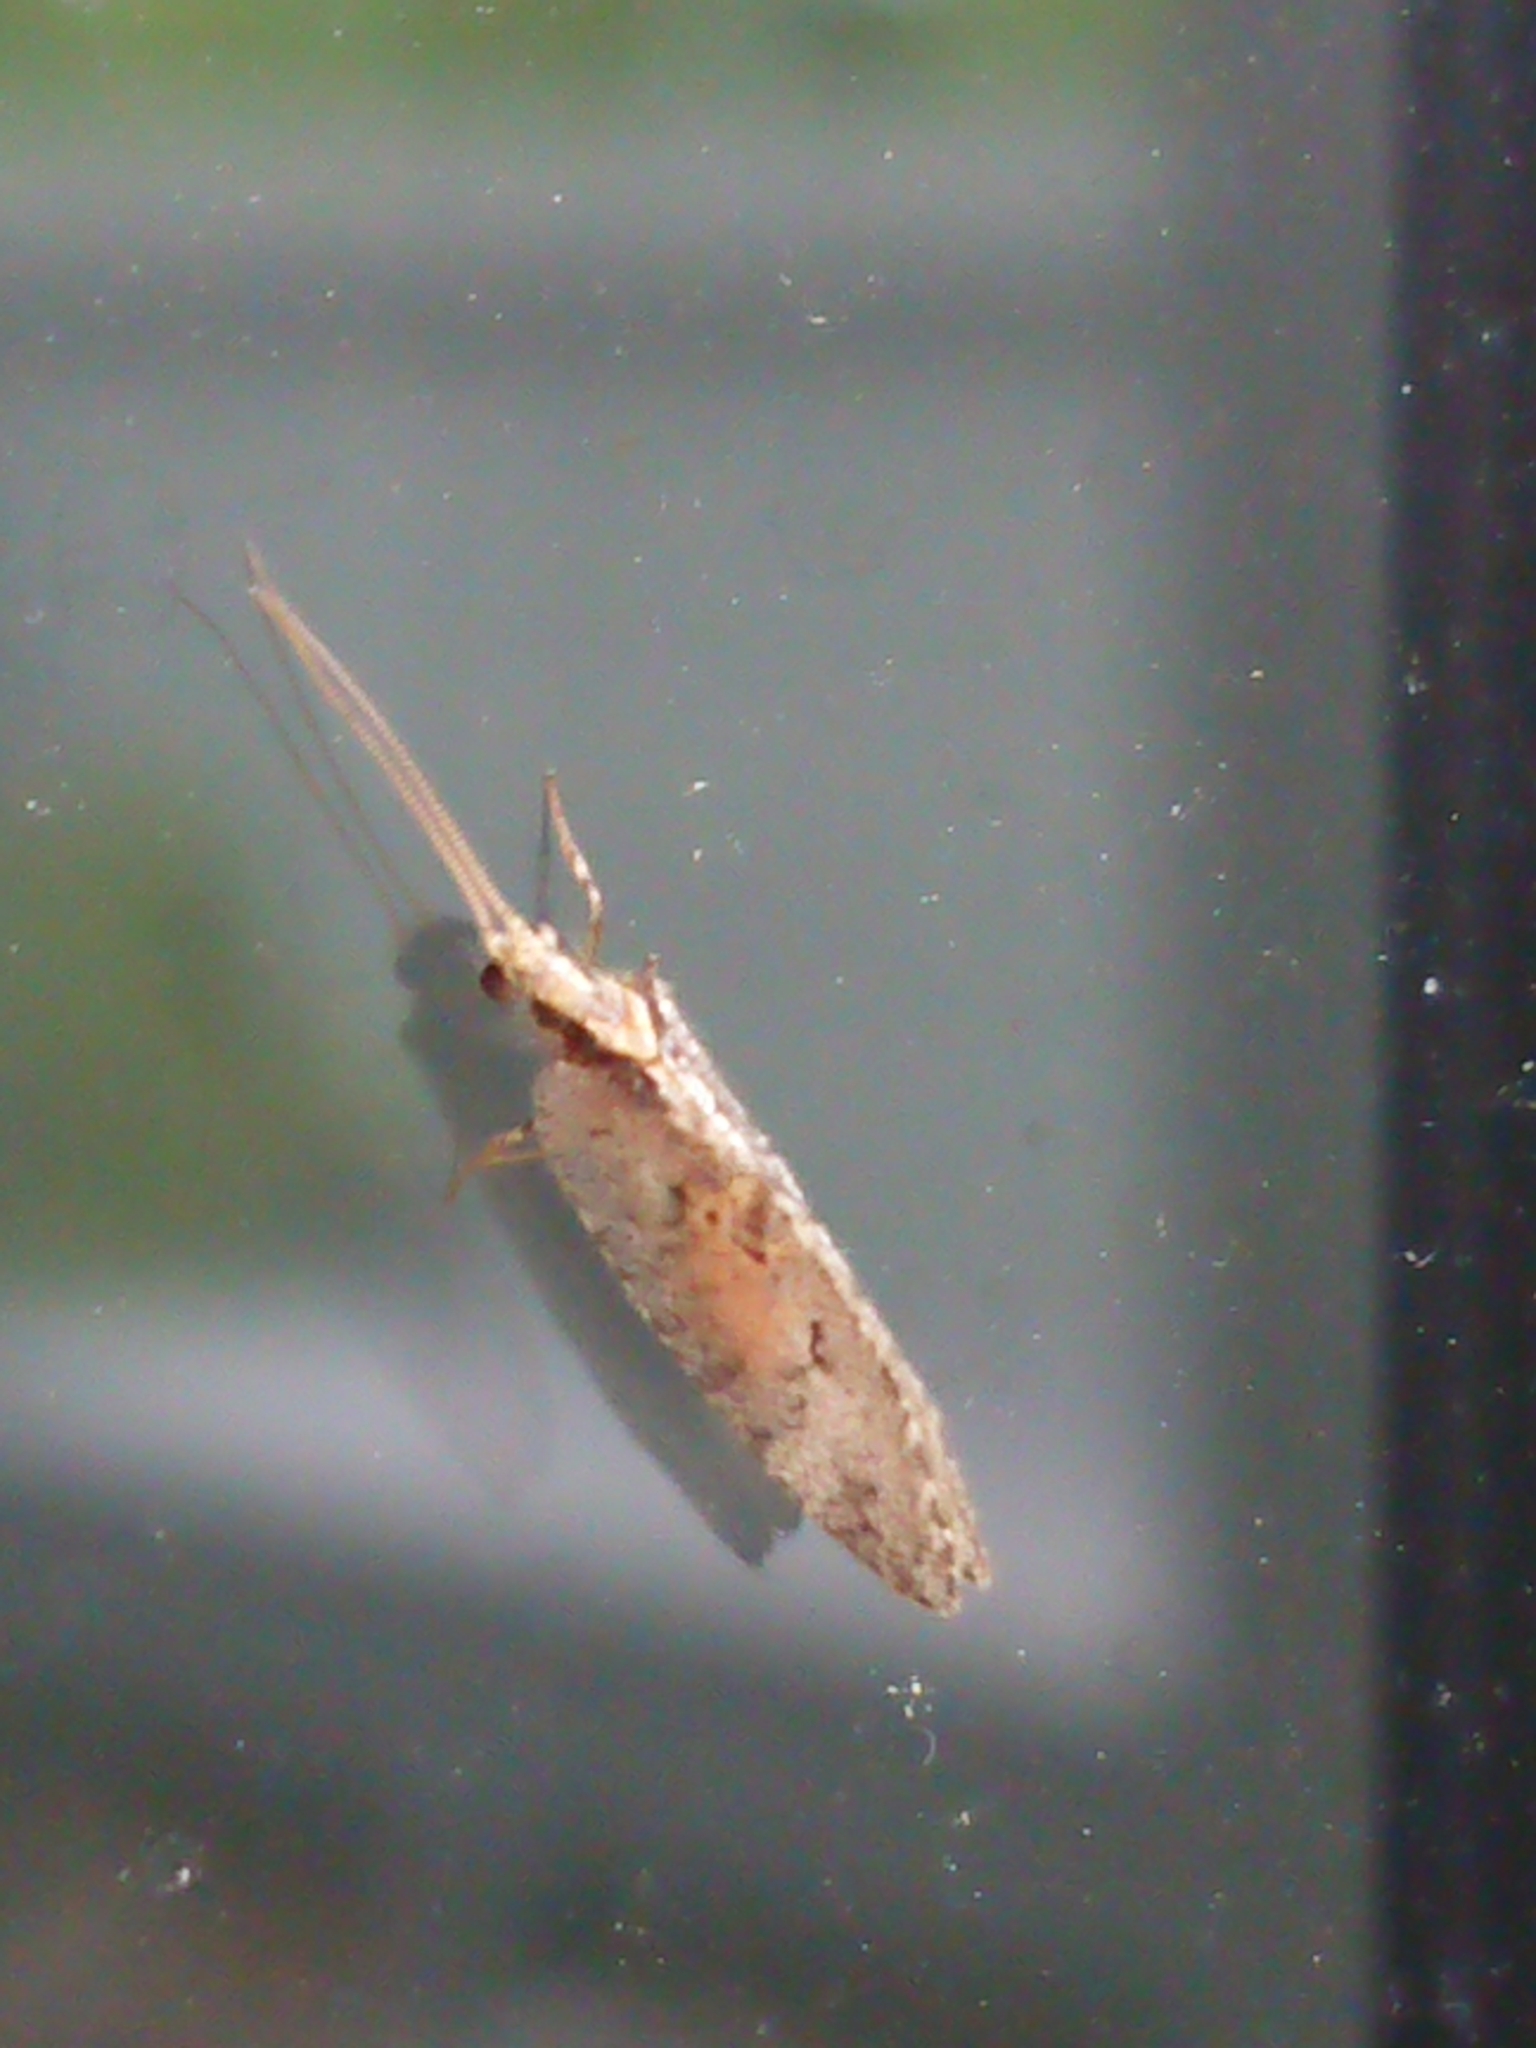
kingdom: Animalia
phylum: Arthropoda
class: Insecta
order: Neuroptera
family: Hemerobiidae
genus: Micromus
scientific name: Micromus tasmaniae
